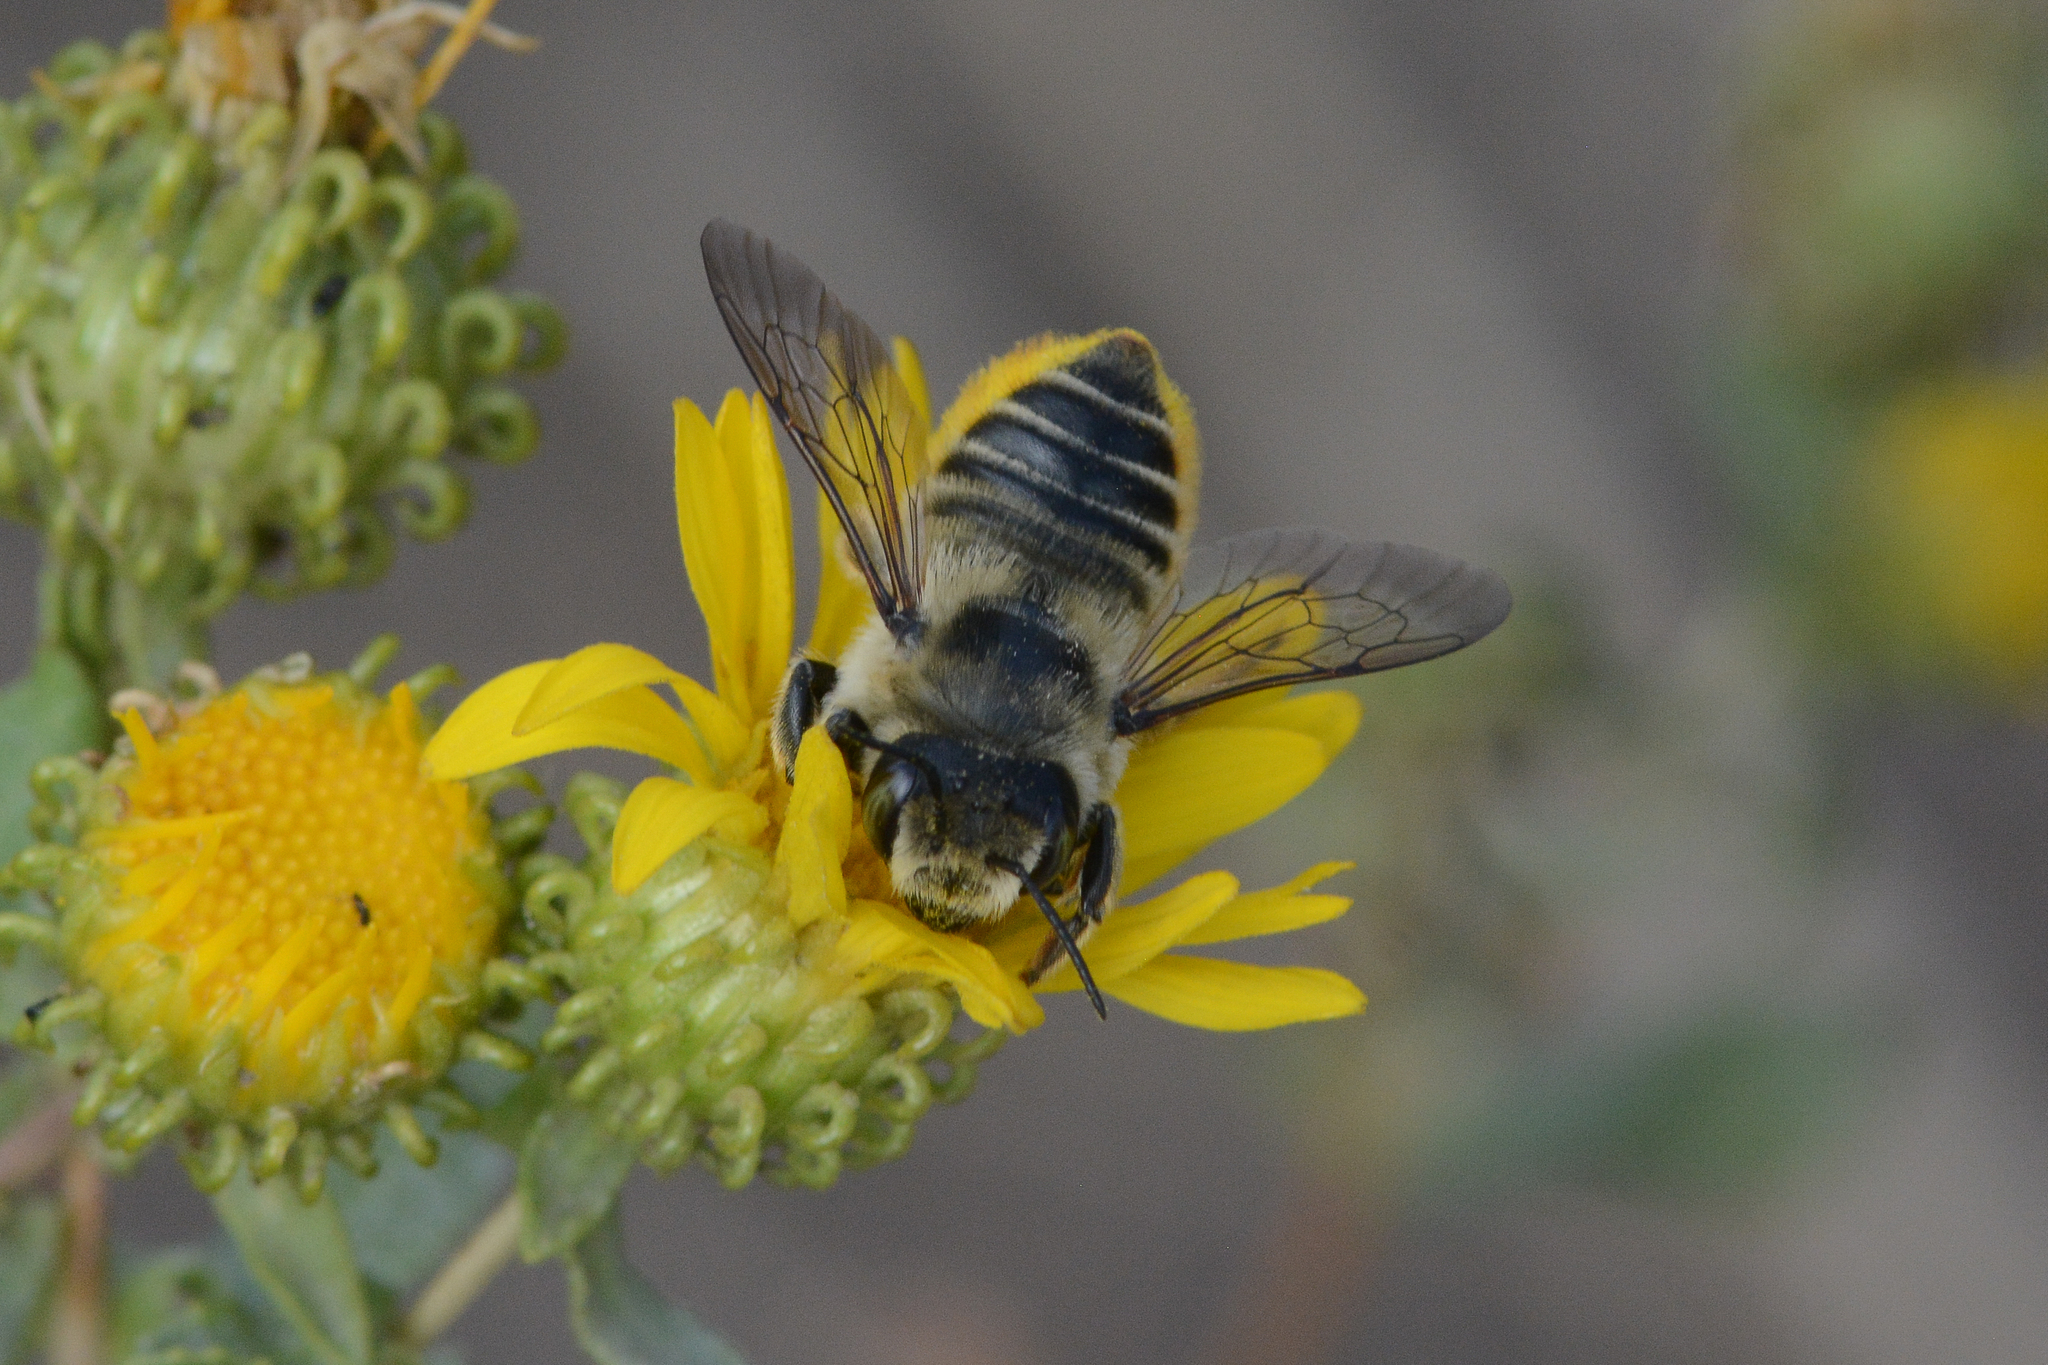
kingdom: Animalia
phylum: Arthropoda
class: Insecta
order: Hymenoptera
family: Megachilidae
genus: Megachile
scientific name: Megachile perihirta
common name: Western leafcutter
